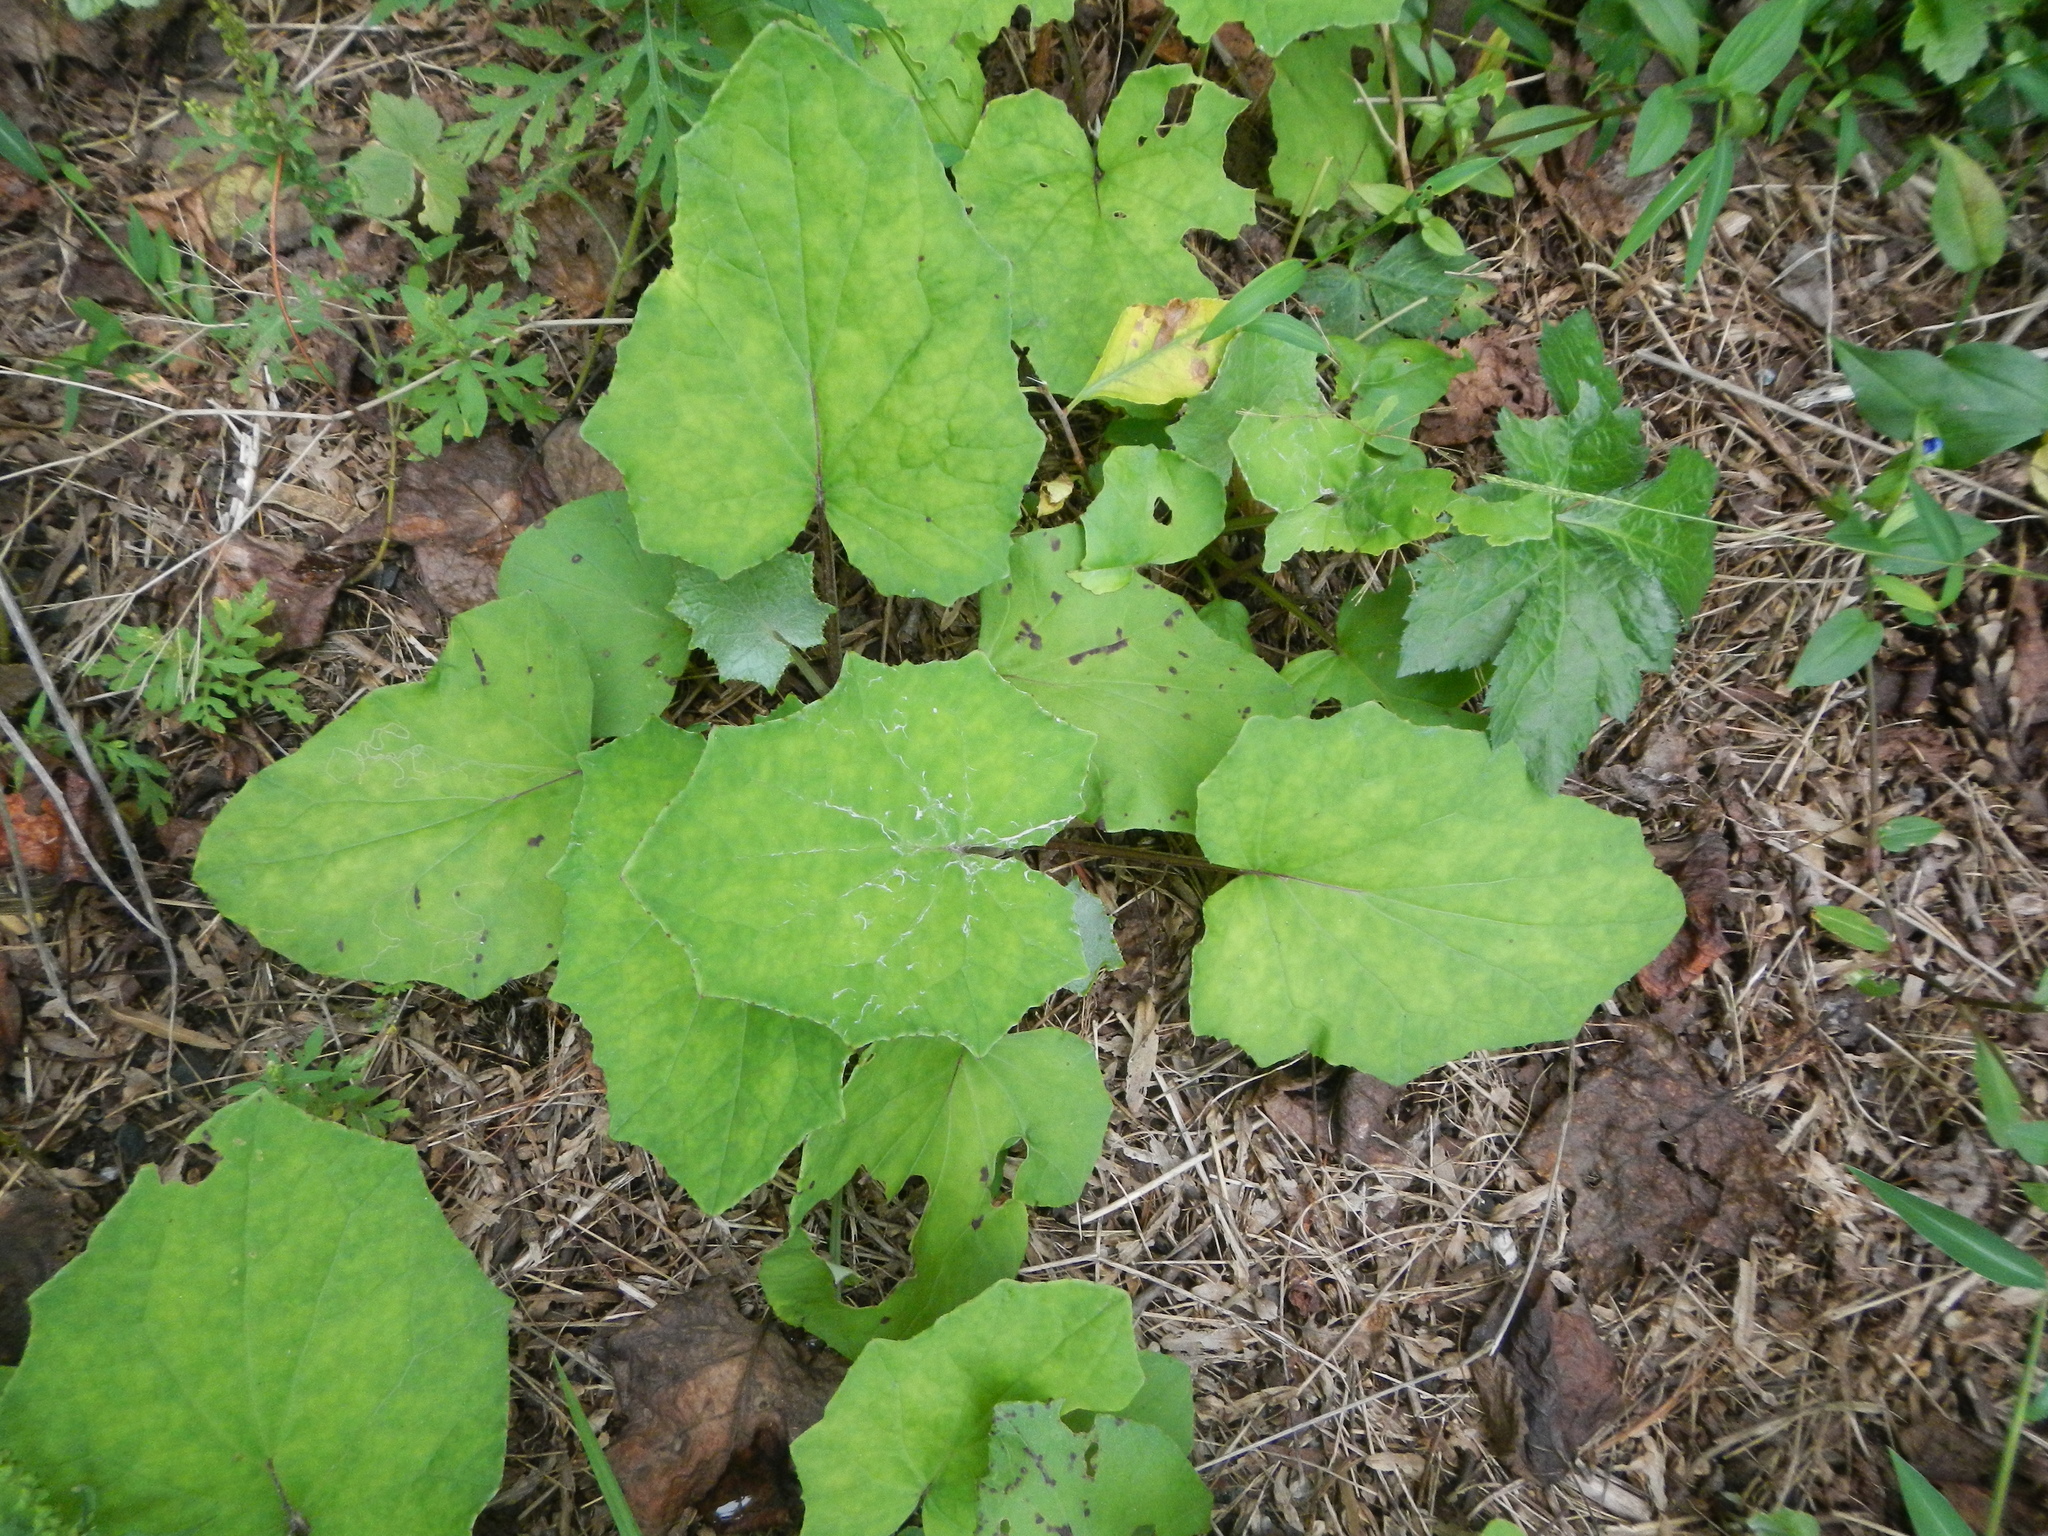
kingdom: Plantae
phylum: Tracheophyta
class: Magnoliopsida
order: Asterales
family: Asteraceae
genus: Tussilago
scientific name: Tussilago farfara
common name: Coltsfoot
